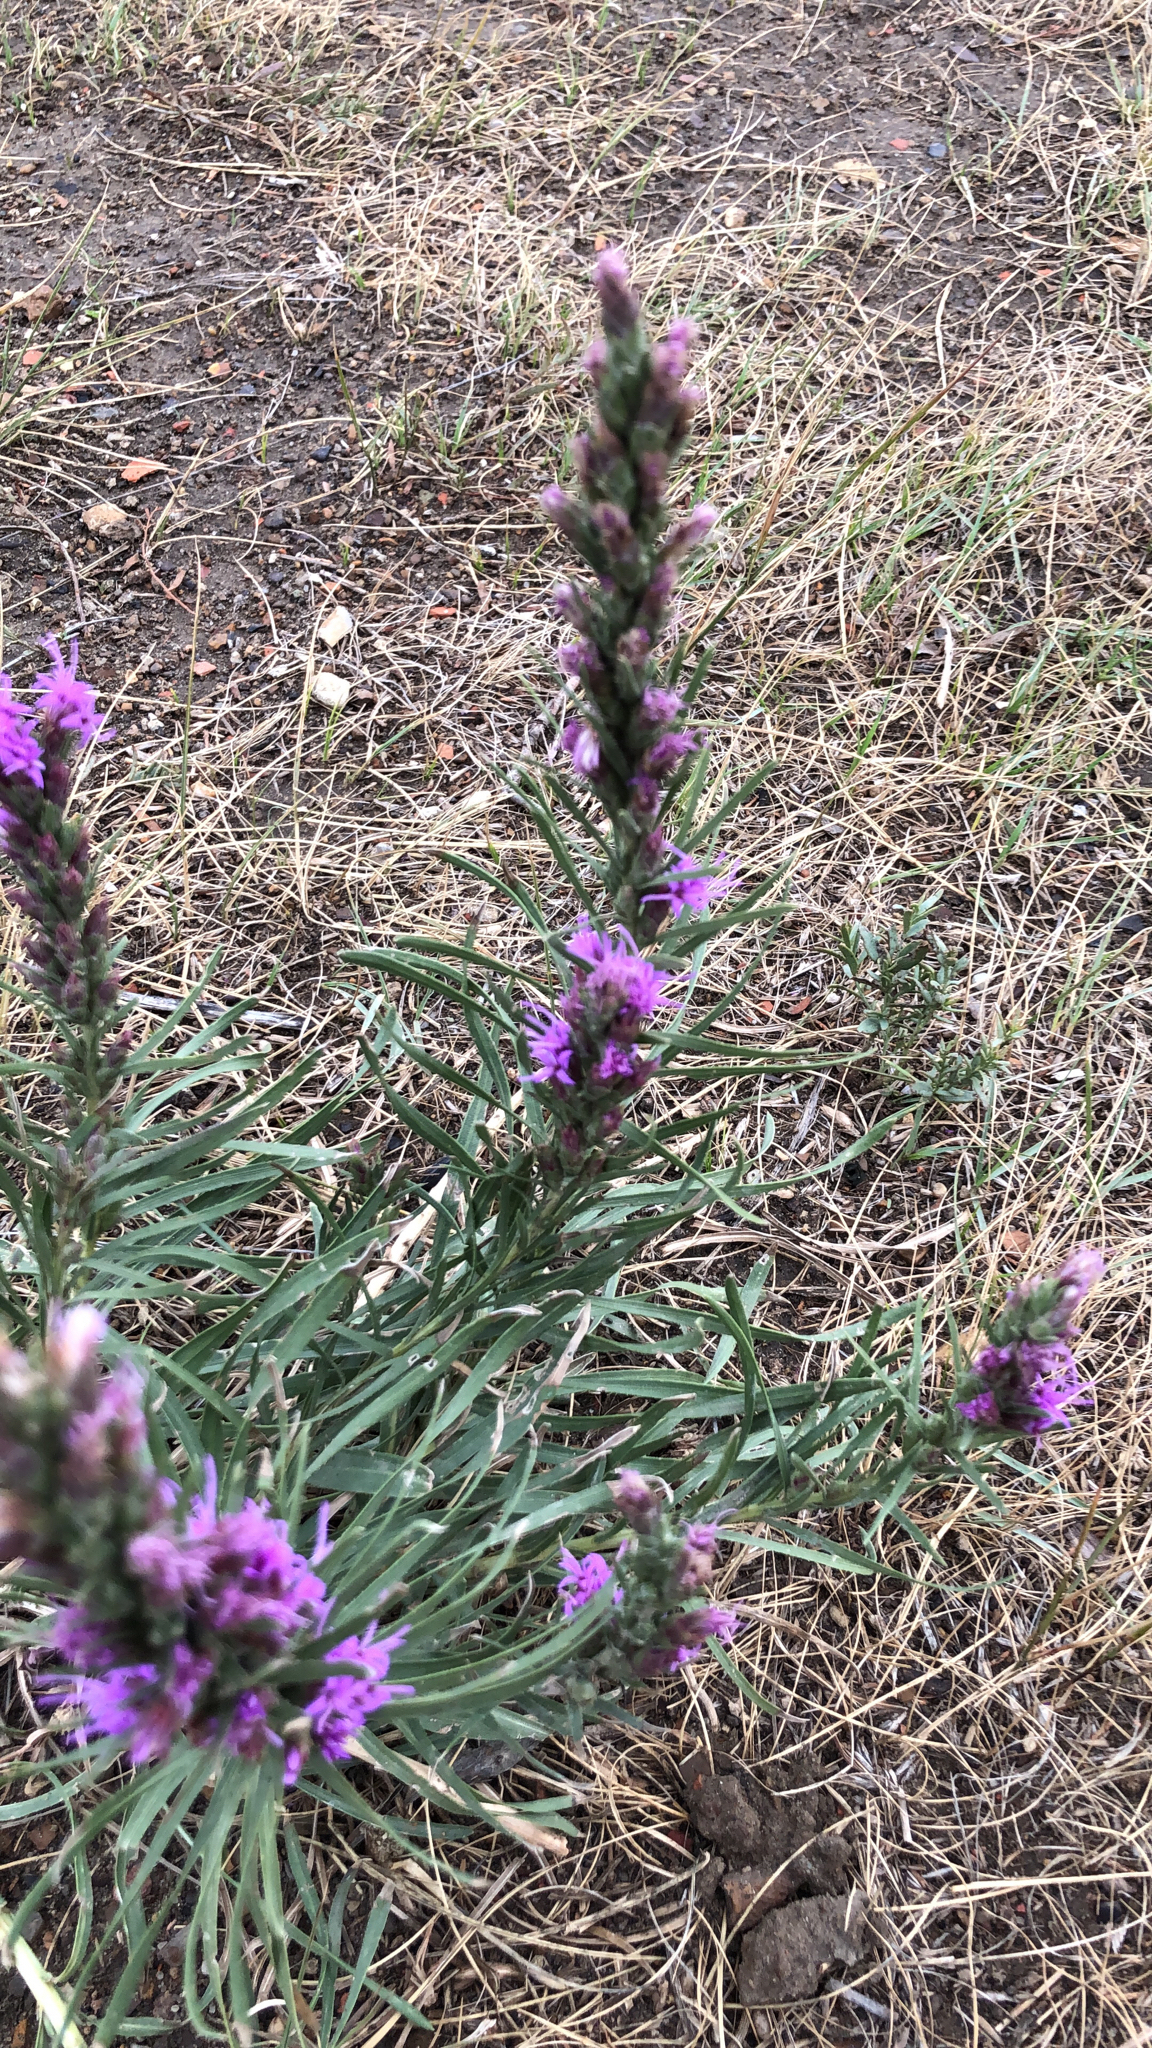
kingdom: Plantae
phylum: Tracheophyta
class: Magnoliopsida
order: Asterales
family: Asteraceae
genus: Liatris
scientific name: Liatris punctata
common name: Dotted gayfeather
